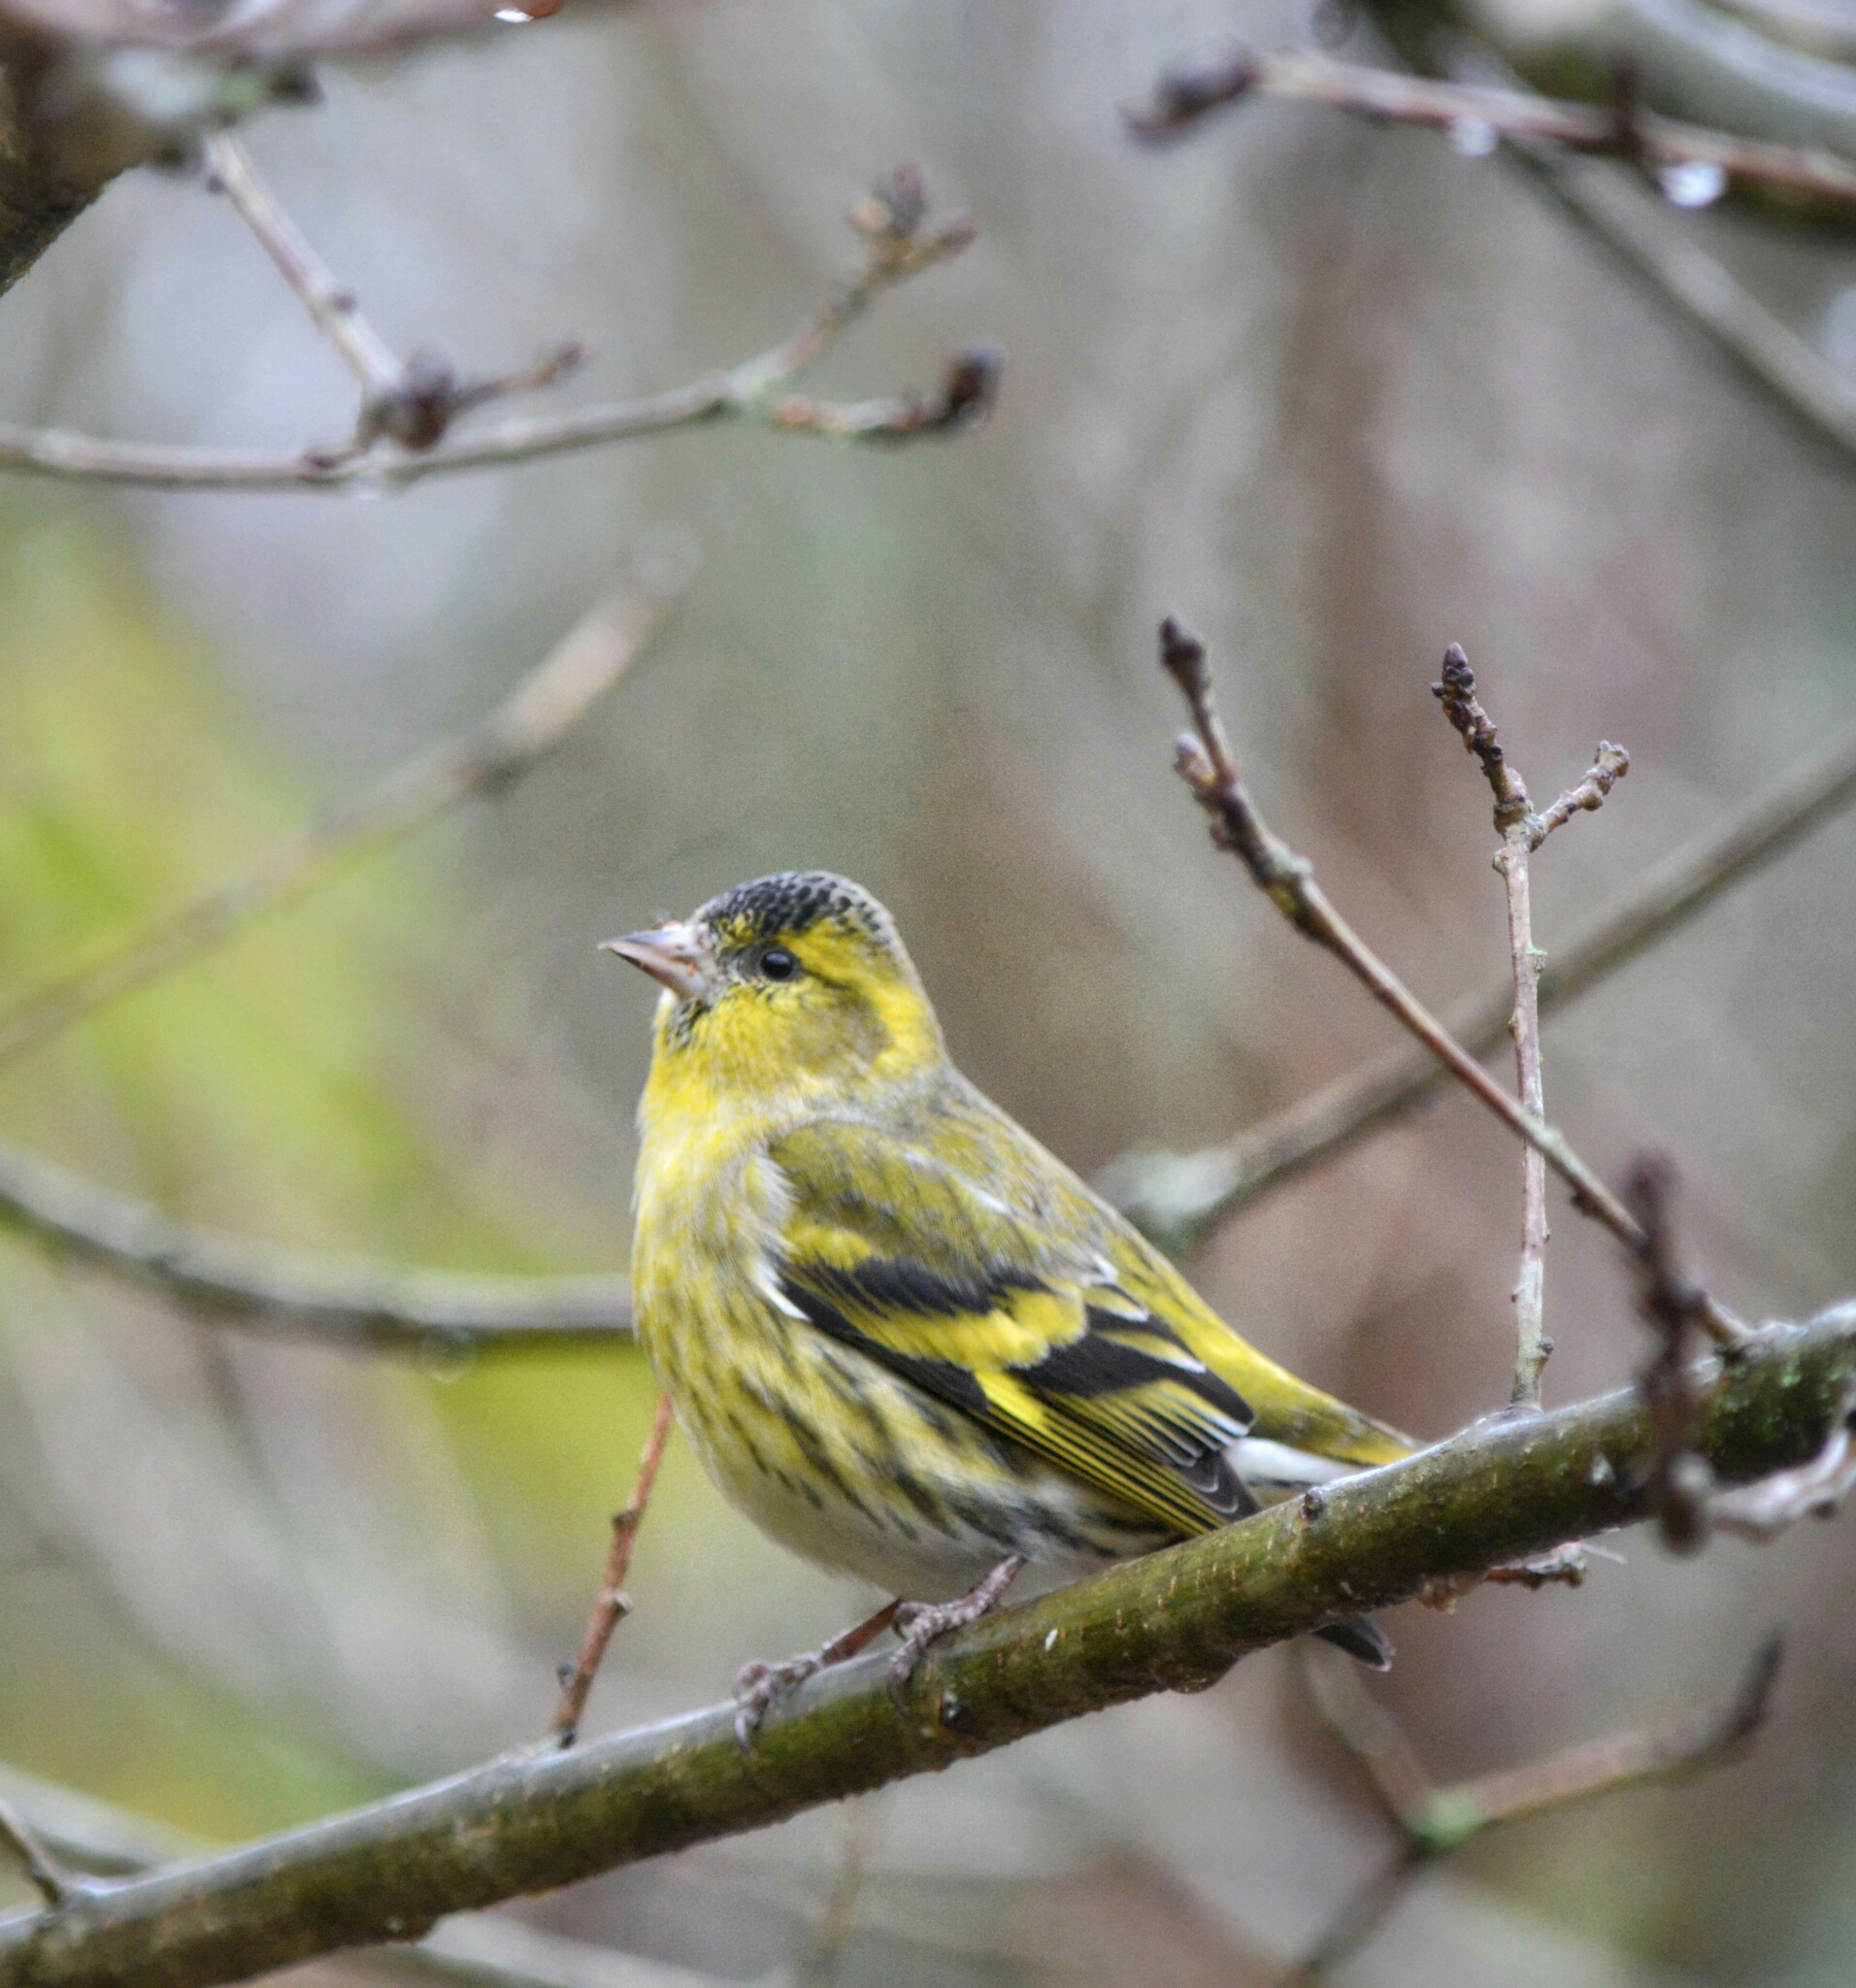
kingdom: Animalia
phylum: Chordata
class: Aves
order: Passeriformes
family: Fringillidae
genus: Spinus
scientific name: Spinus spinus
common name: Eurasian siskin
